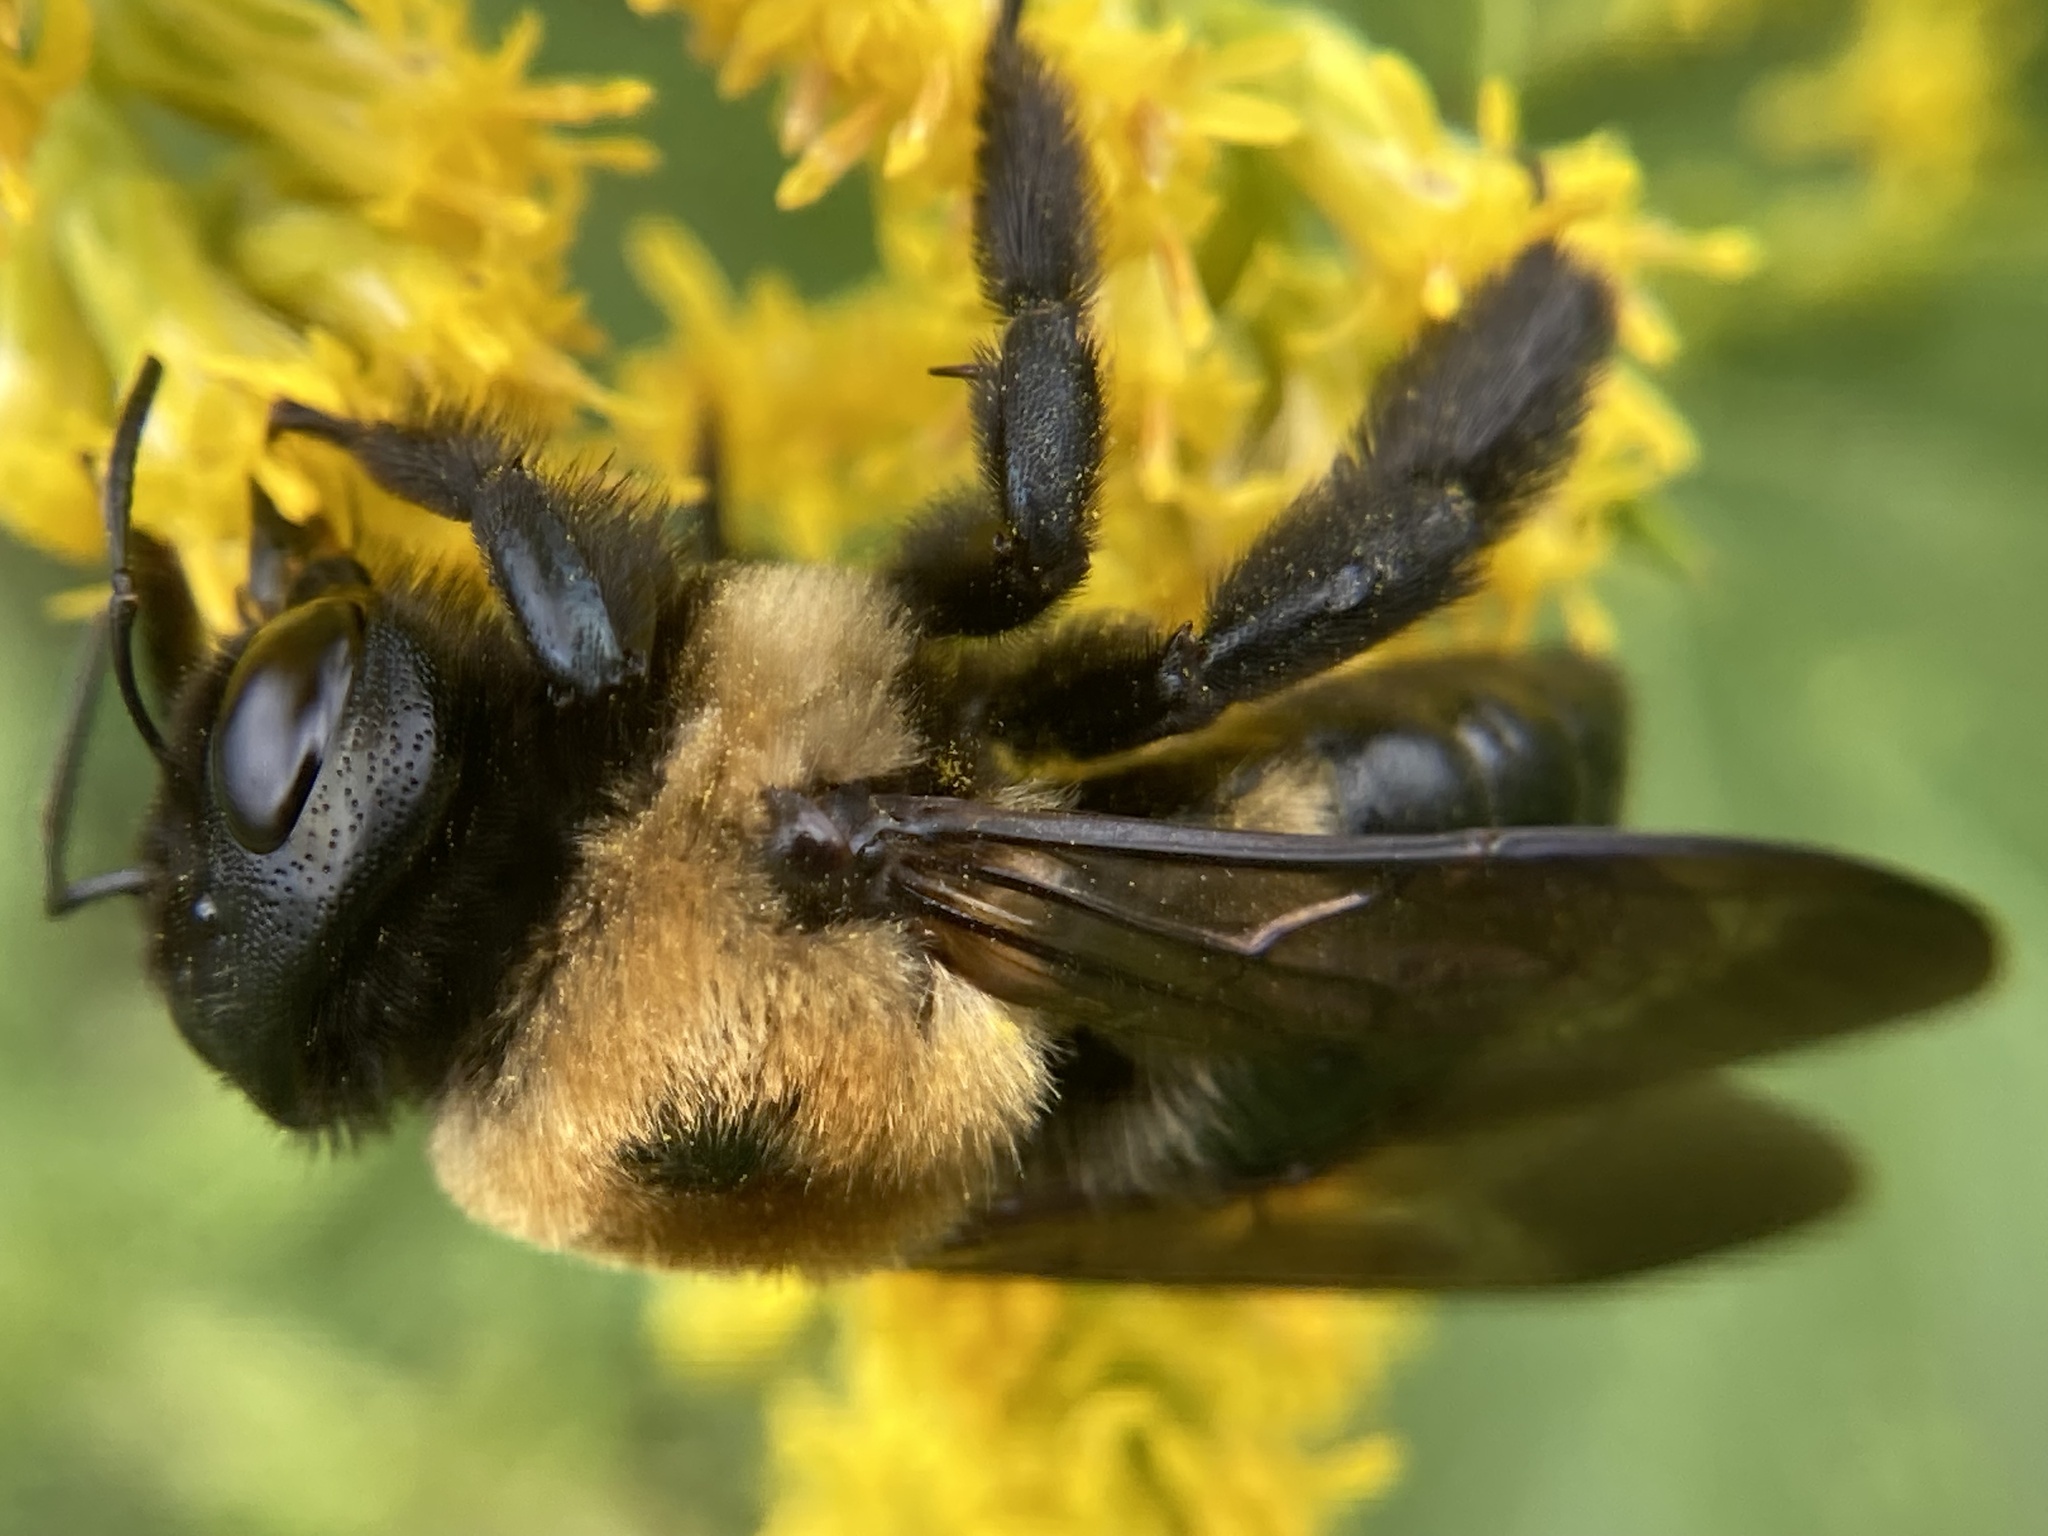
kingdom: Animalia
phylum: Arthropoda
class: Insecta
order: Hymenoptera
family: Apidae
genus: Xylocopa
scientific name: Xylocopa virginica
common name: Carpenter bee
